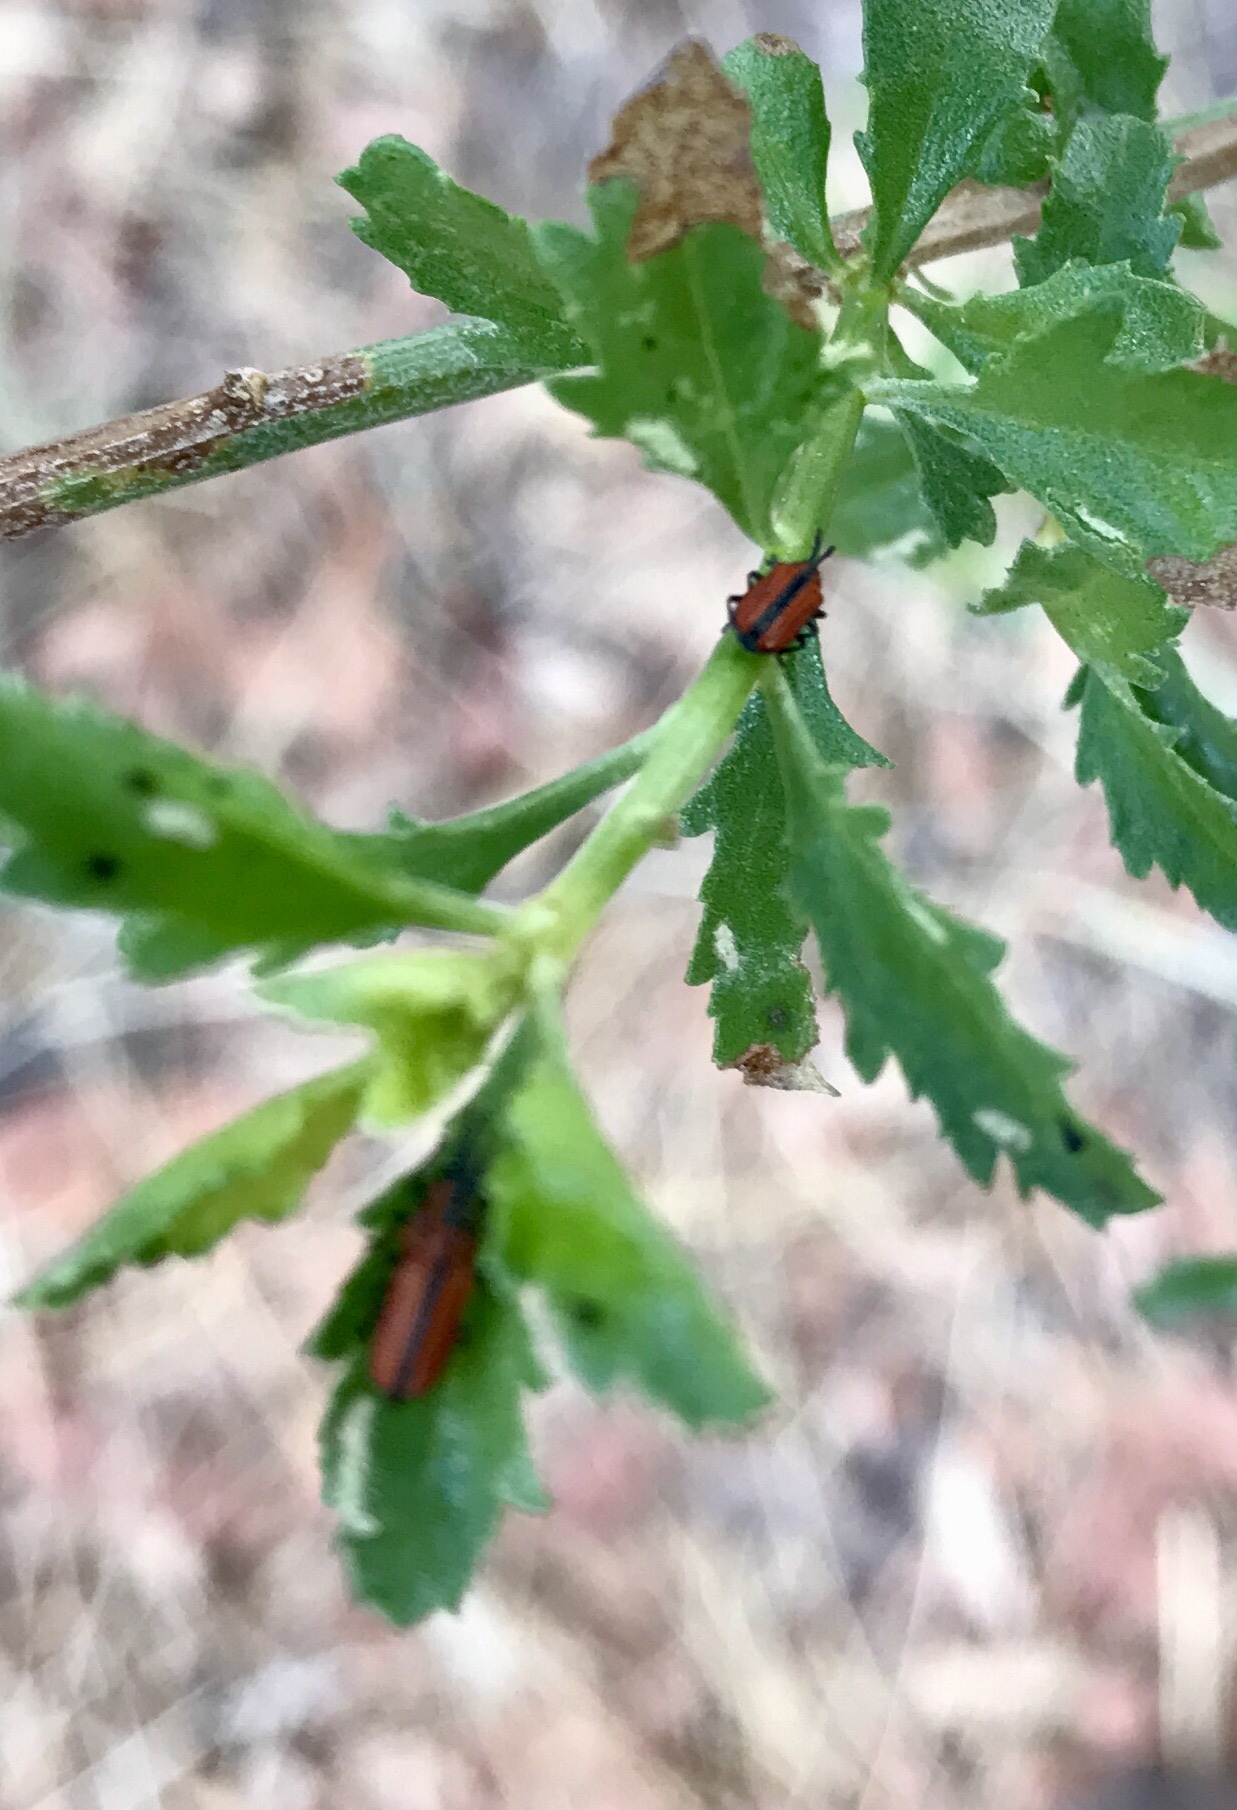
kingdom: Animalia
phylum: Arthropoda
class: Insecta
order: Coleoptera
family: Chrysomelidae
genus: Microrhopala
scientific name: Microrhopala arizonica
